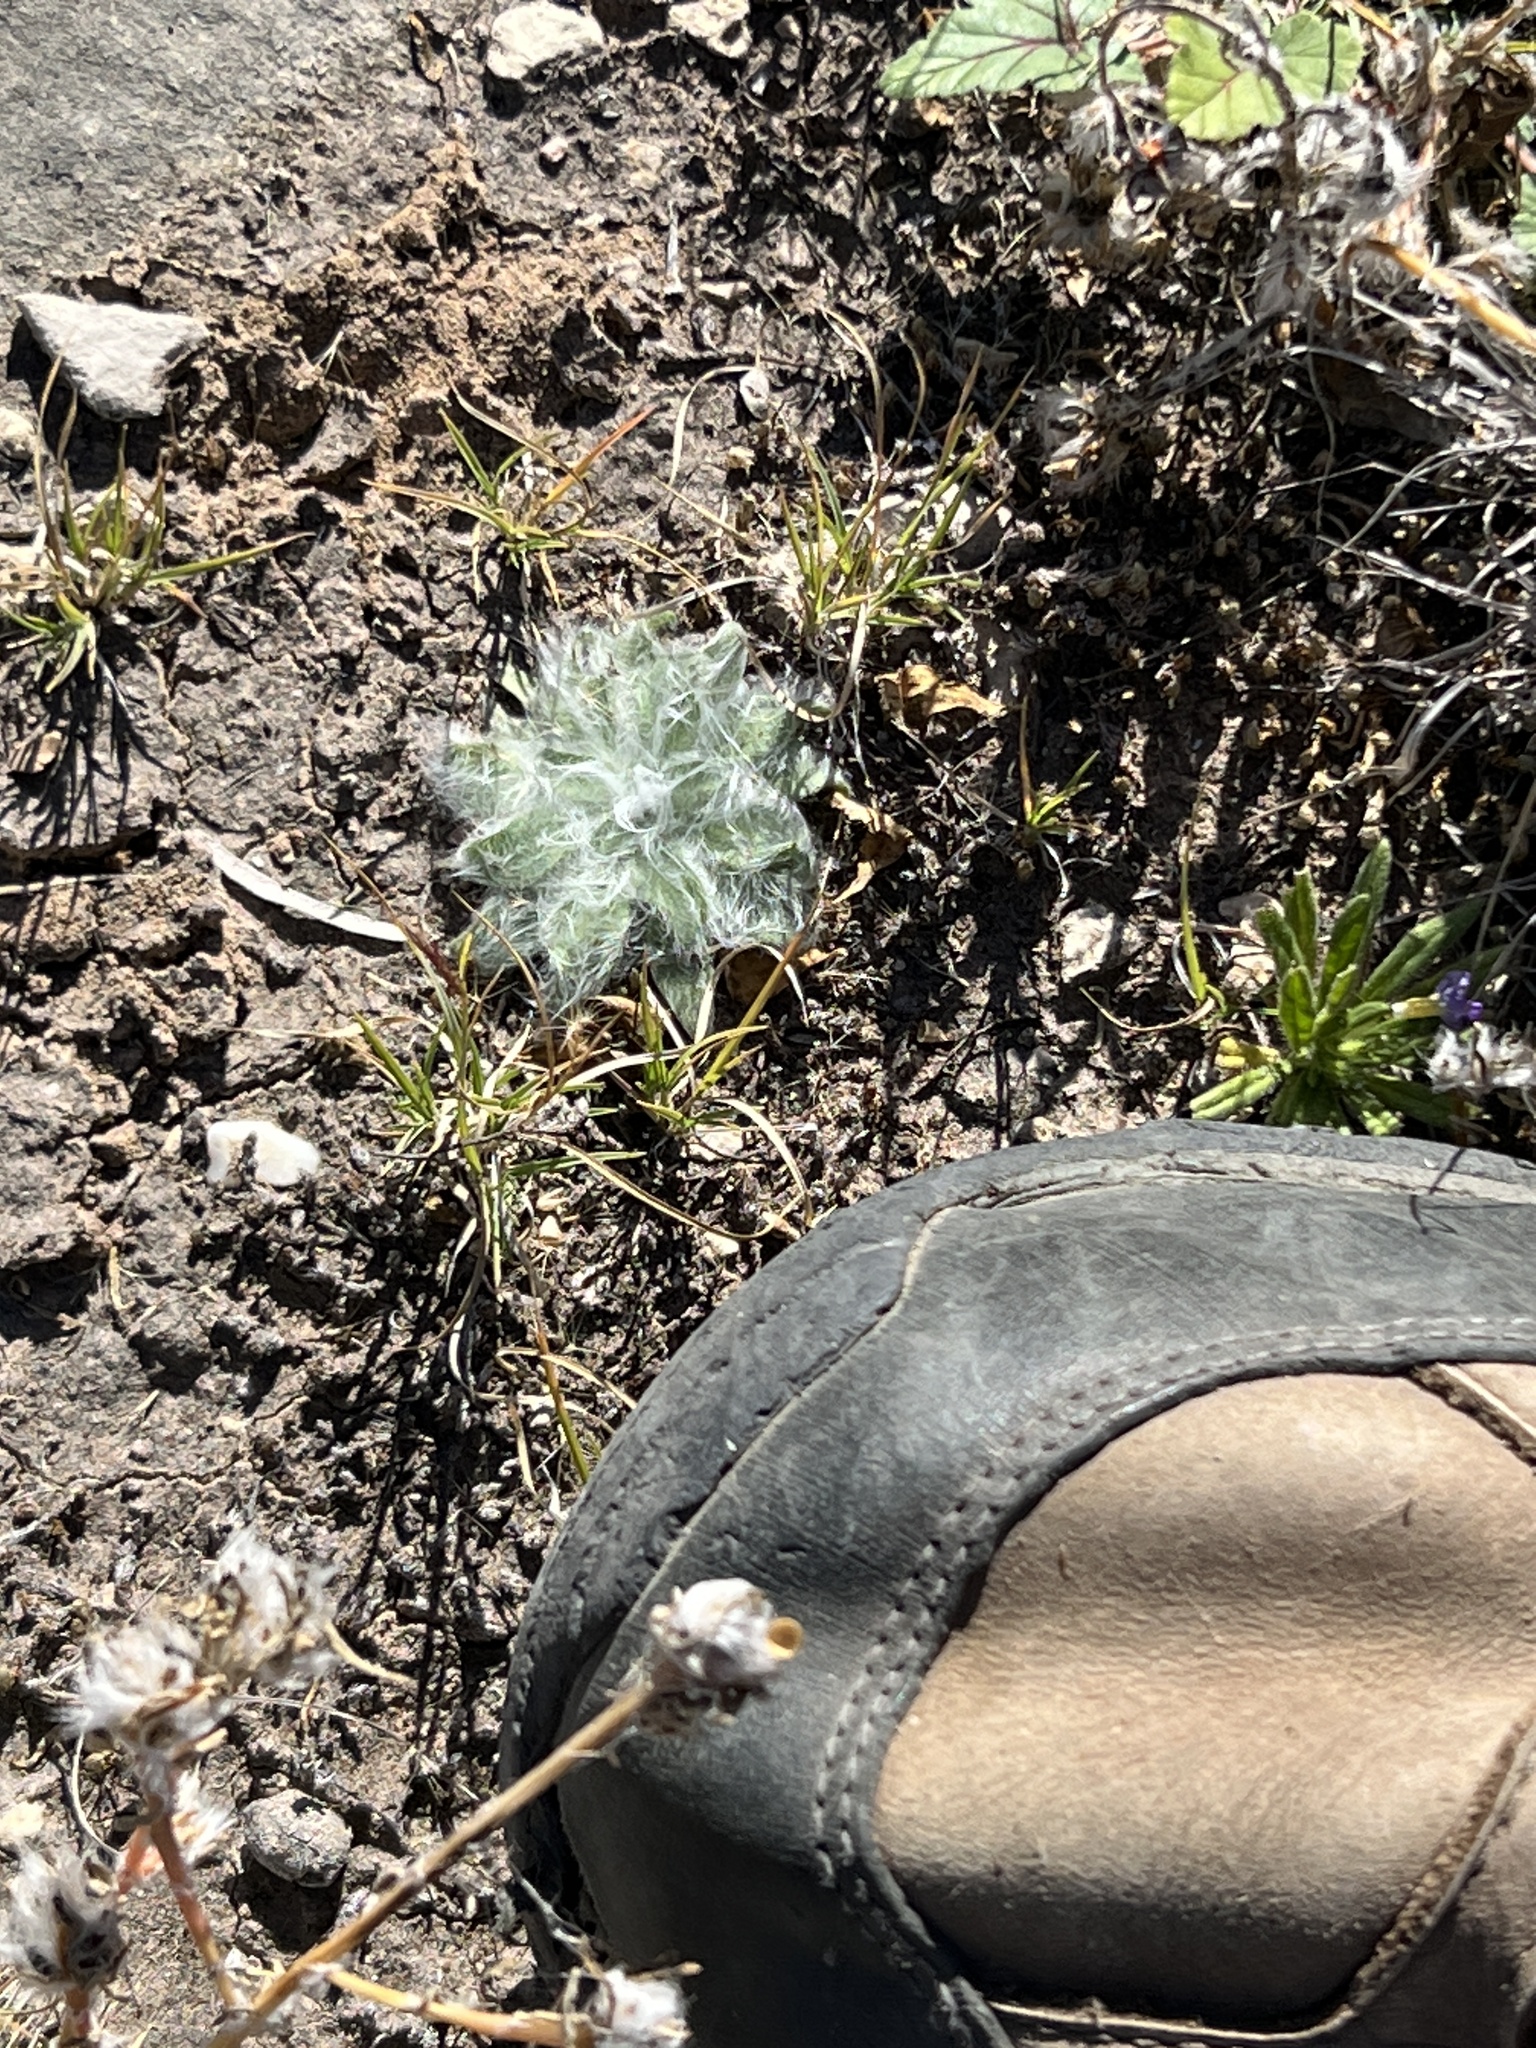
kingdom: Plantae
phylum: Tracheophyta
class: Magnoliopsida
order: Asterales
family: Asteraceae
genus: Diaperia
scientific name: Diaperia prolifera
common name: Big-head rabbit-tobacco
